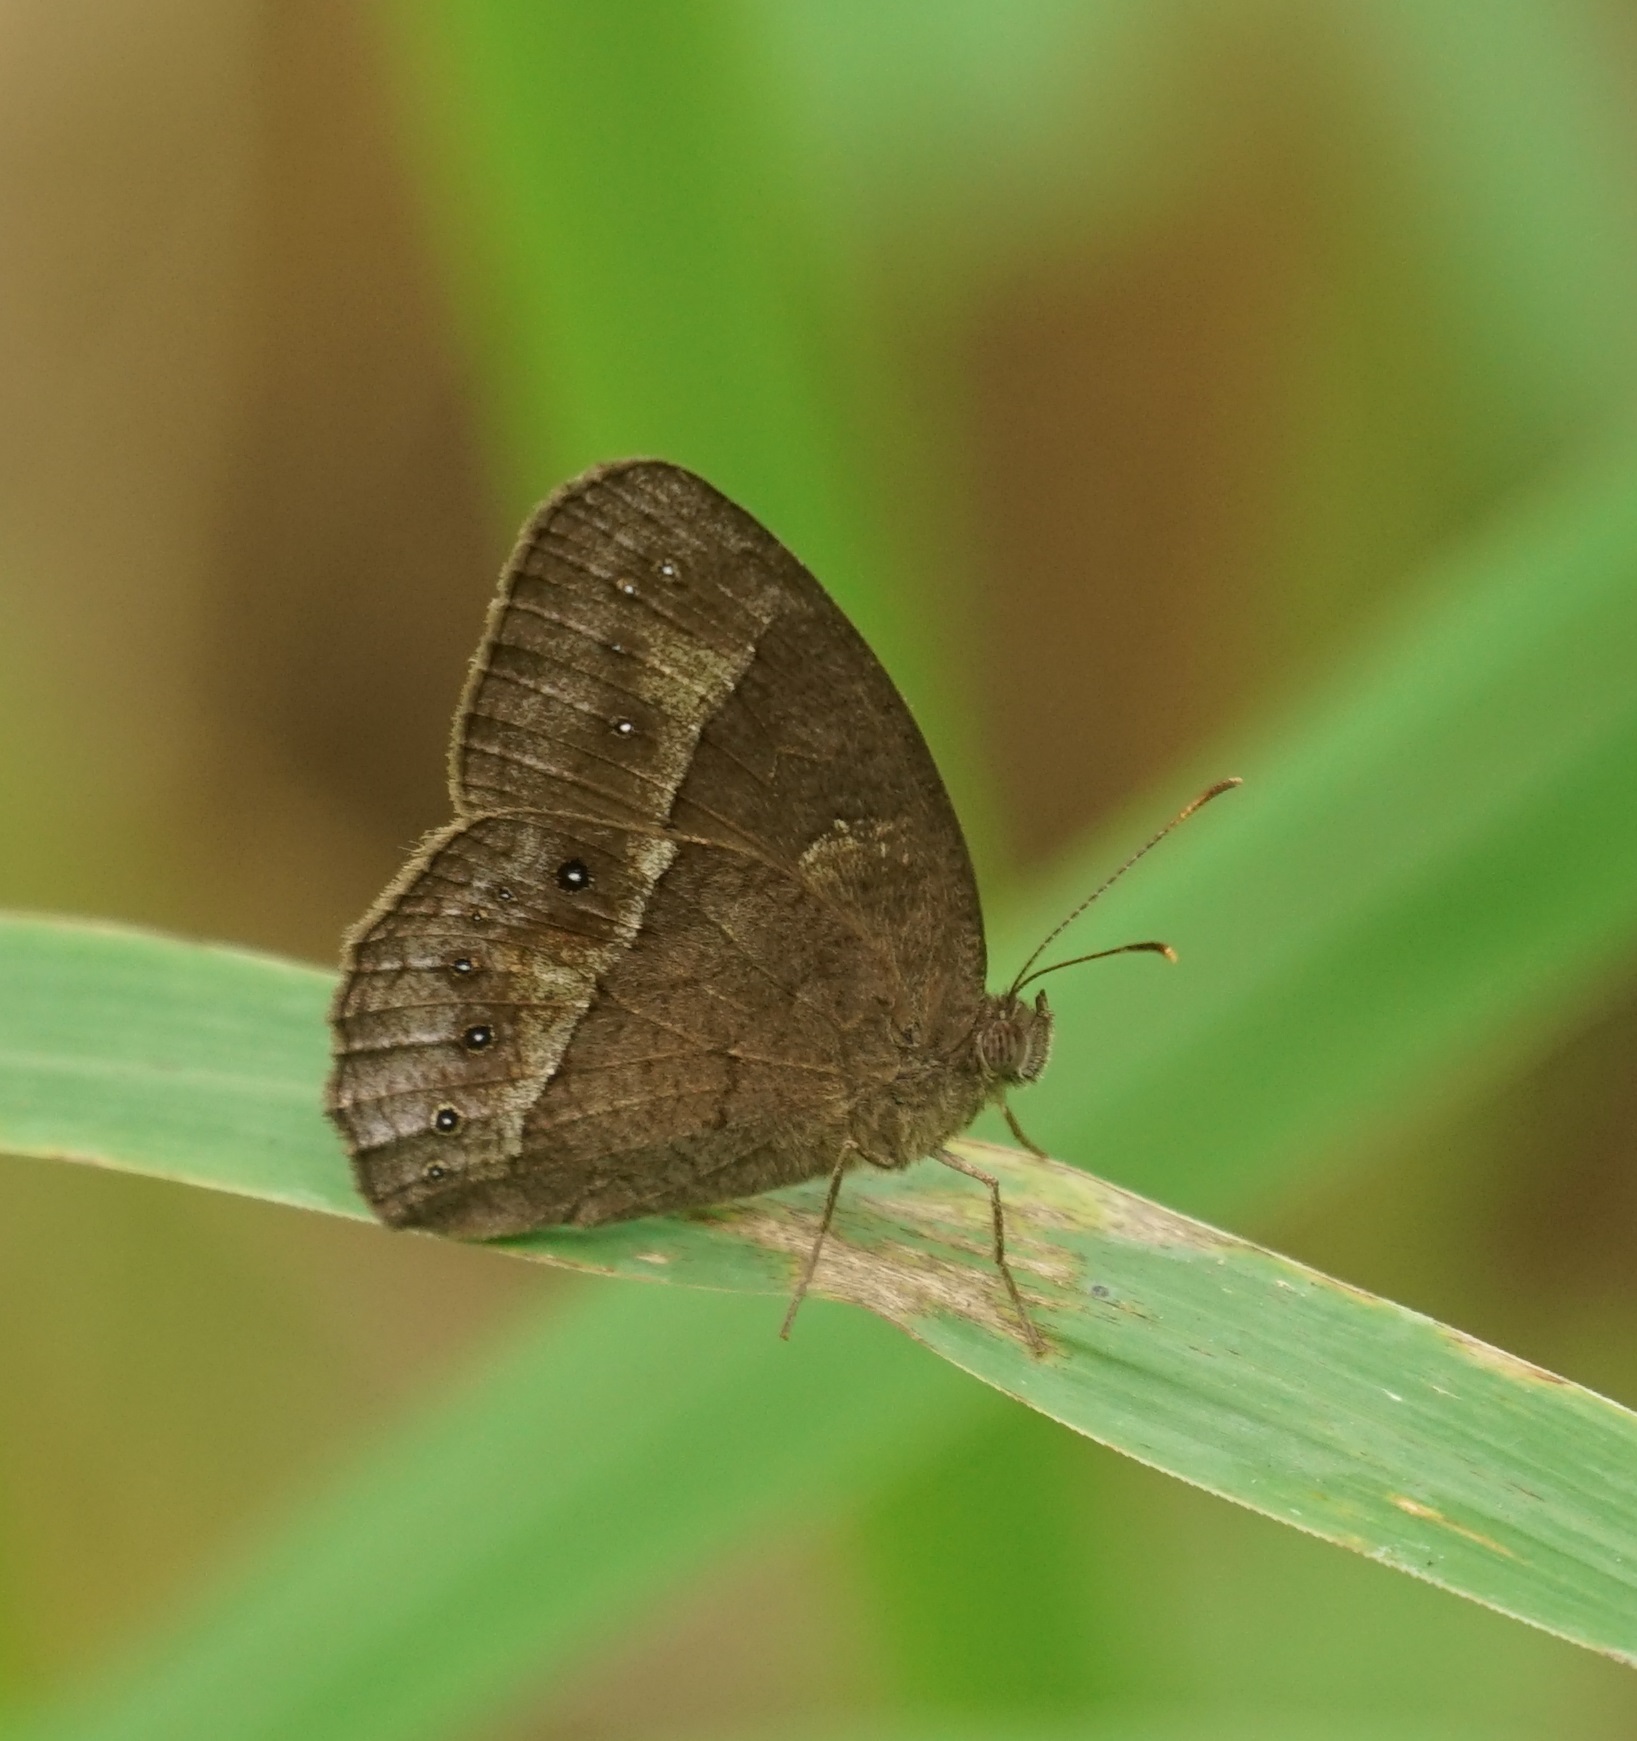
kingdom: Animalia
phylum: Arthropoda
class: Insecta
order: Lepidoptera
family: Nymphalidae
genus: Mycalesis
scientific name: Mycalesis perseus
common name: Dingy bushbrown
